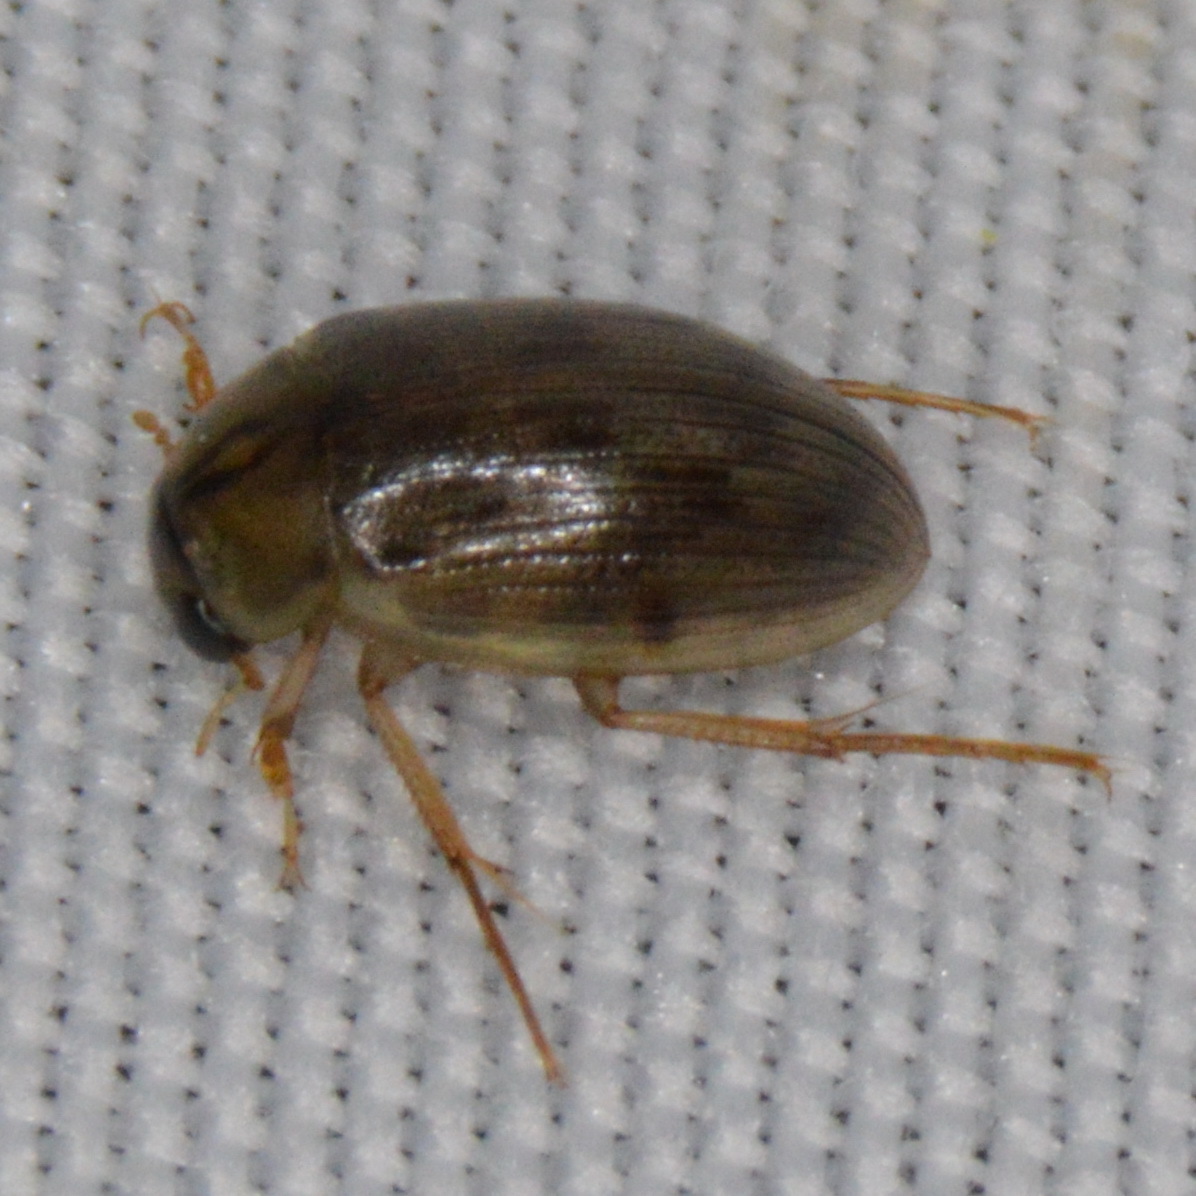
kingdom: Animalia
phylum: Arthropoda
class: Insecta
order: Coleoptera
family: Hydrophilidae
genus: Berosus
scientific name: Berosus
